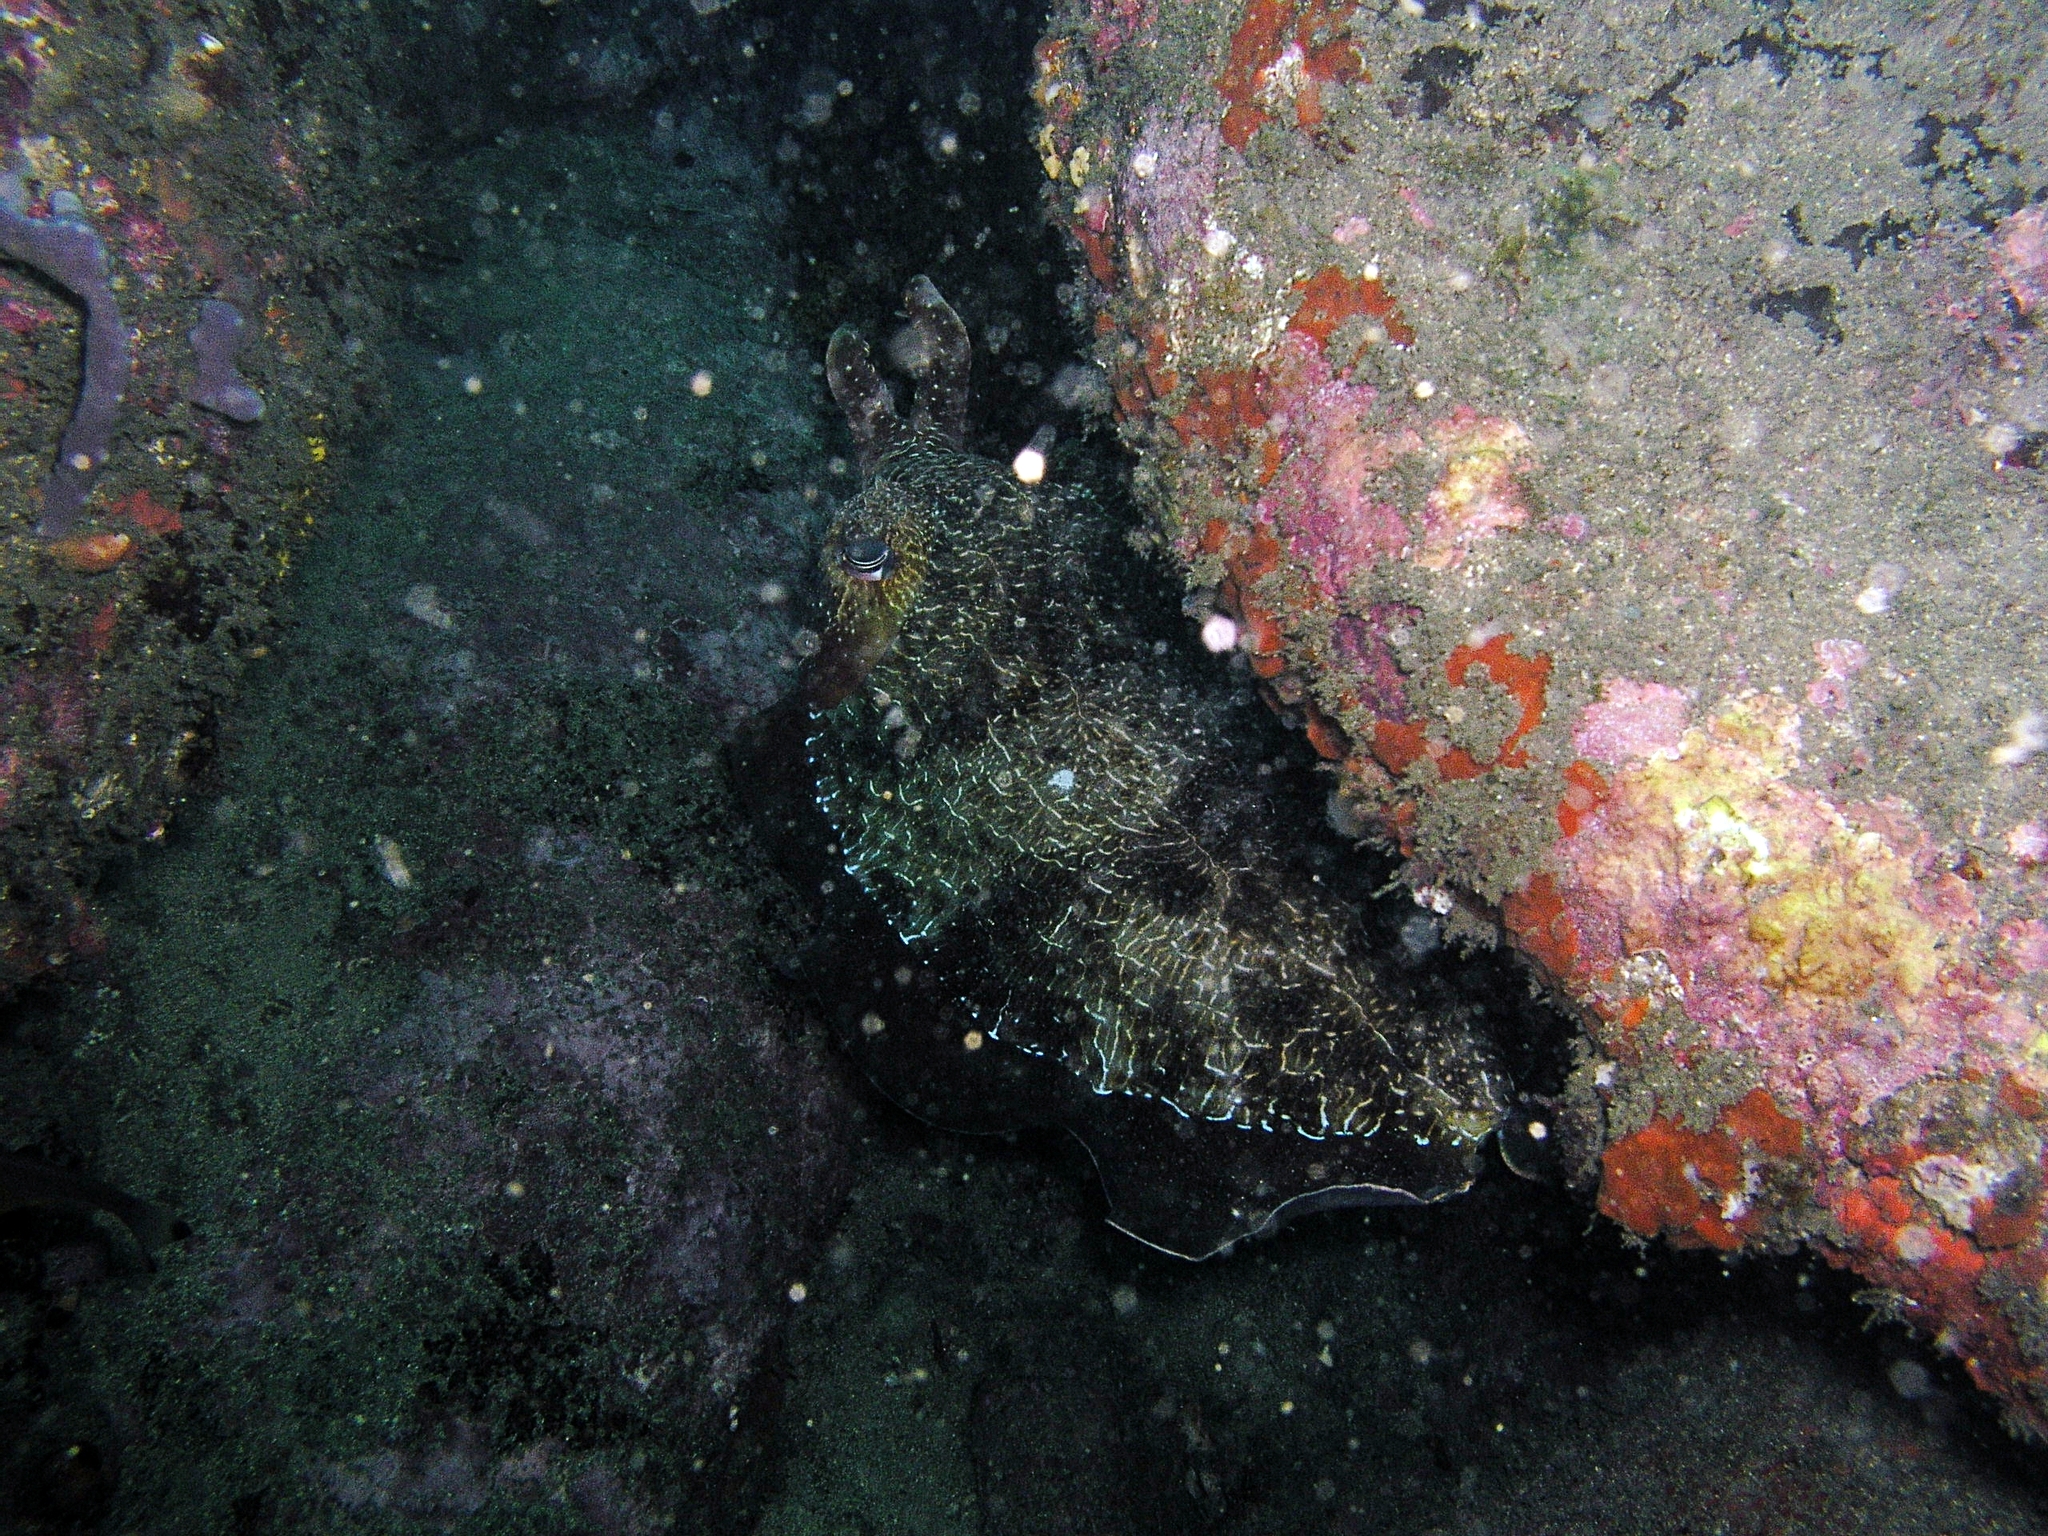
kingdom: Animalia
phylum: Mollusca
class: Cephalopoda
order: Sepiida
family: Sepiidae
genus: Ascarosepion
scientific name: Ascarosepion apama
